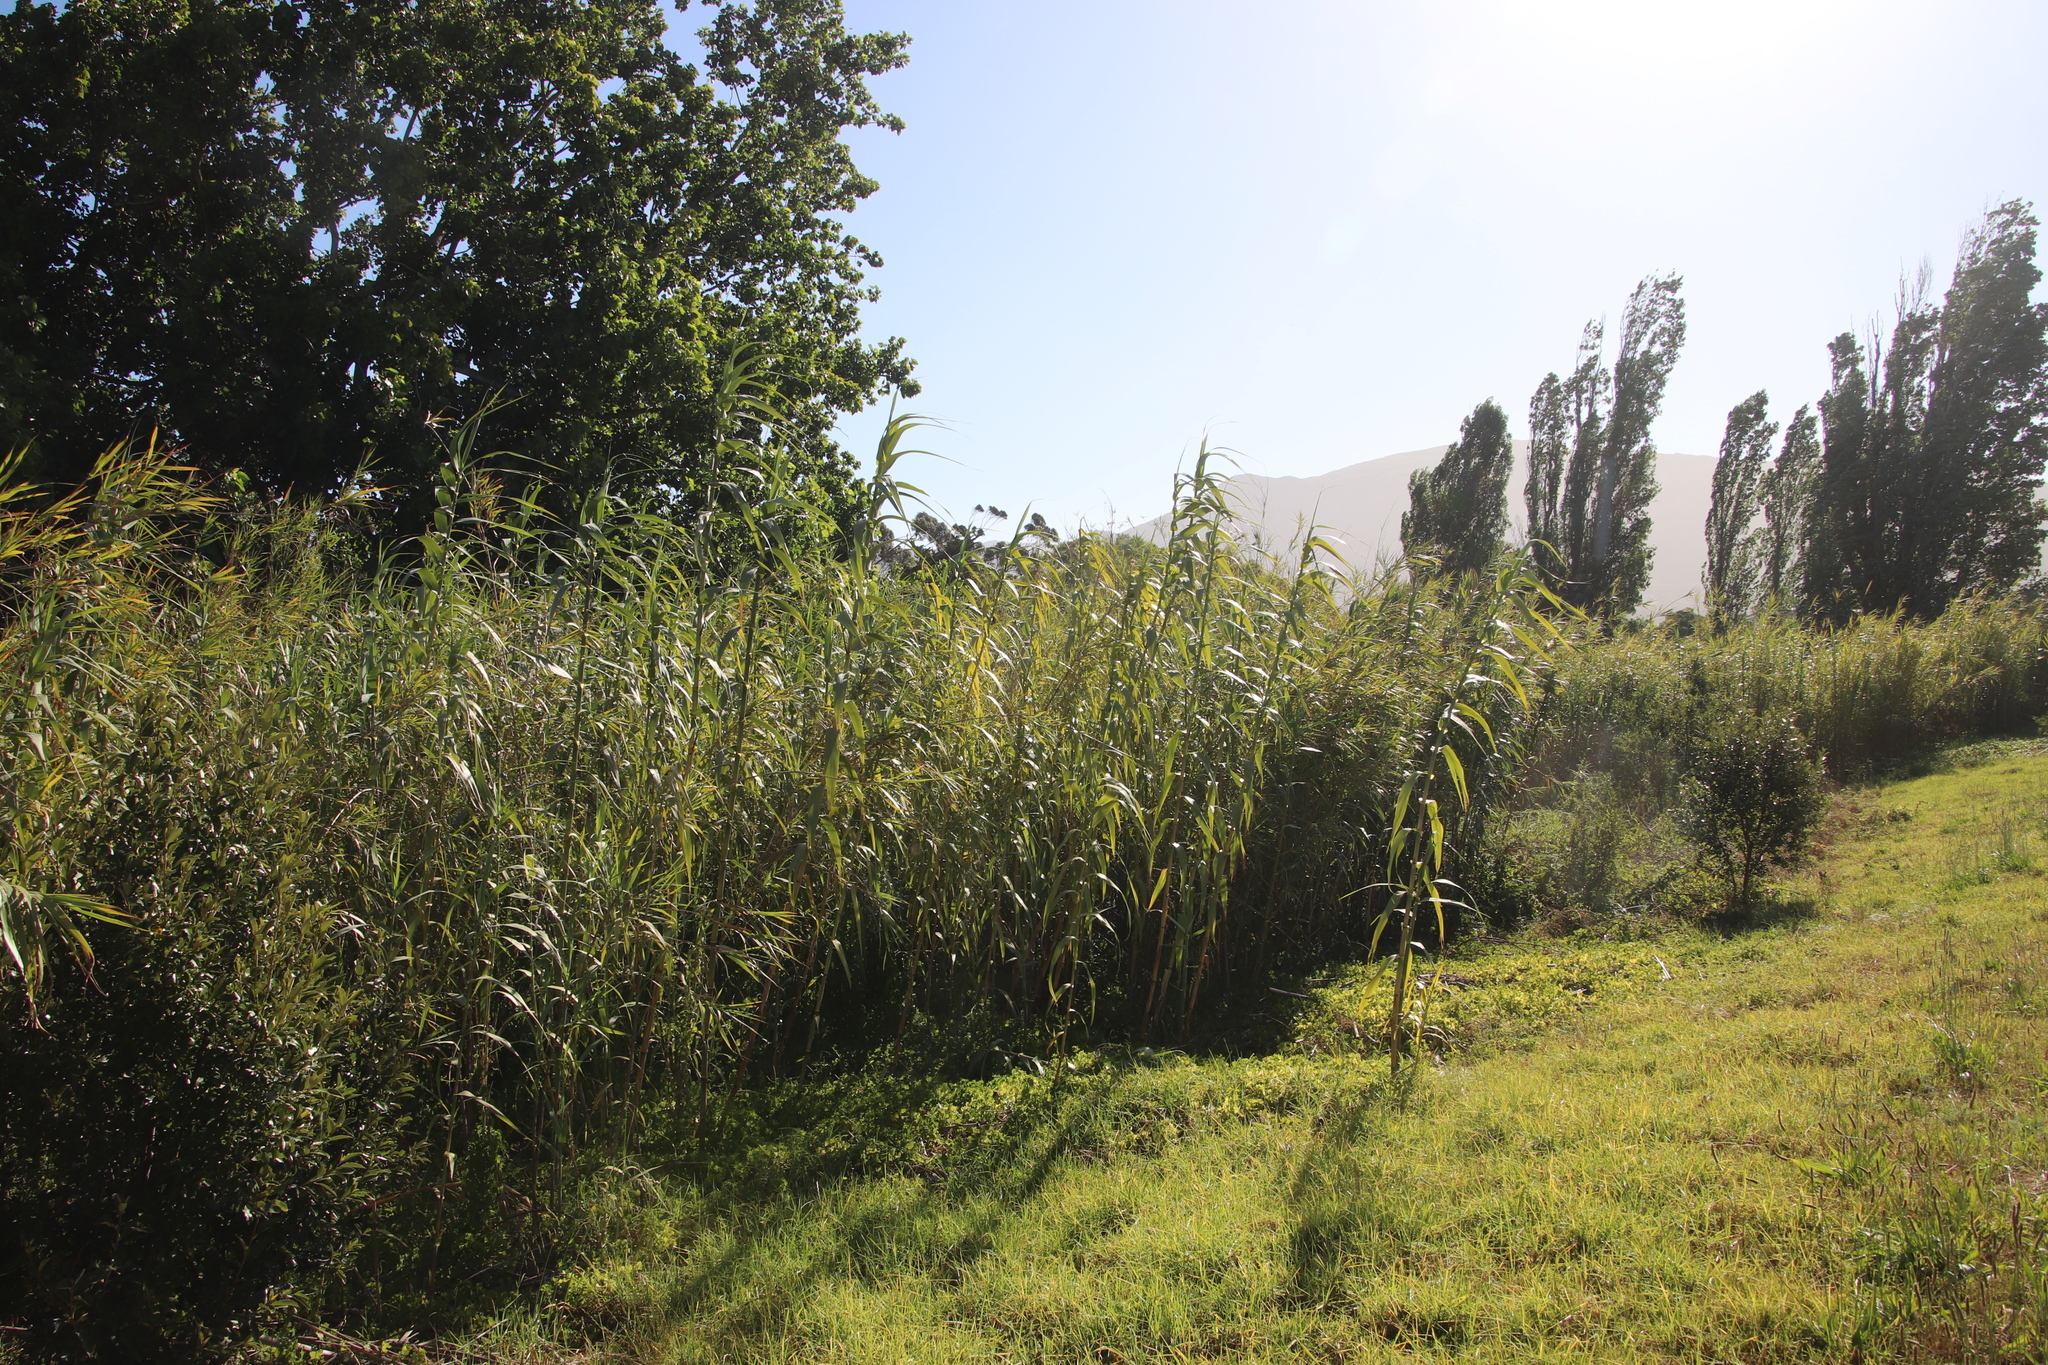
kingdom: Plantae
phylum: Tracheophyta
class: Liliopsida
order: Poales
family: Poaceae
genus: Arundo
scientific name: Arundo donax
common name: Giant reed
